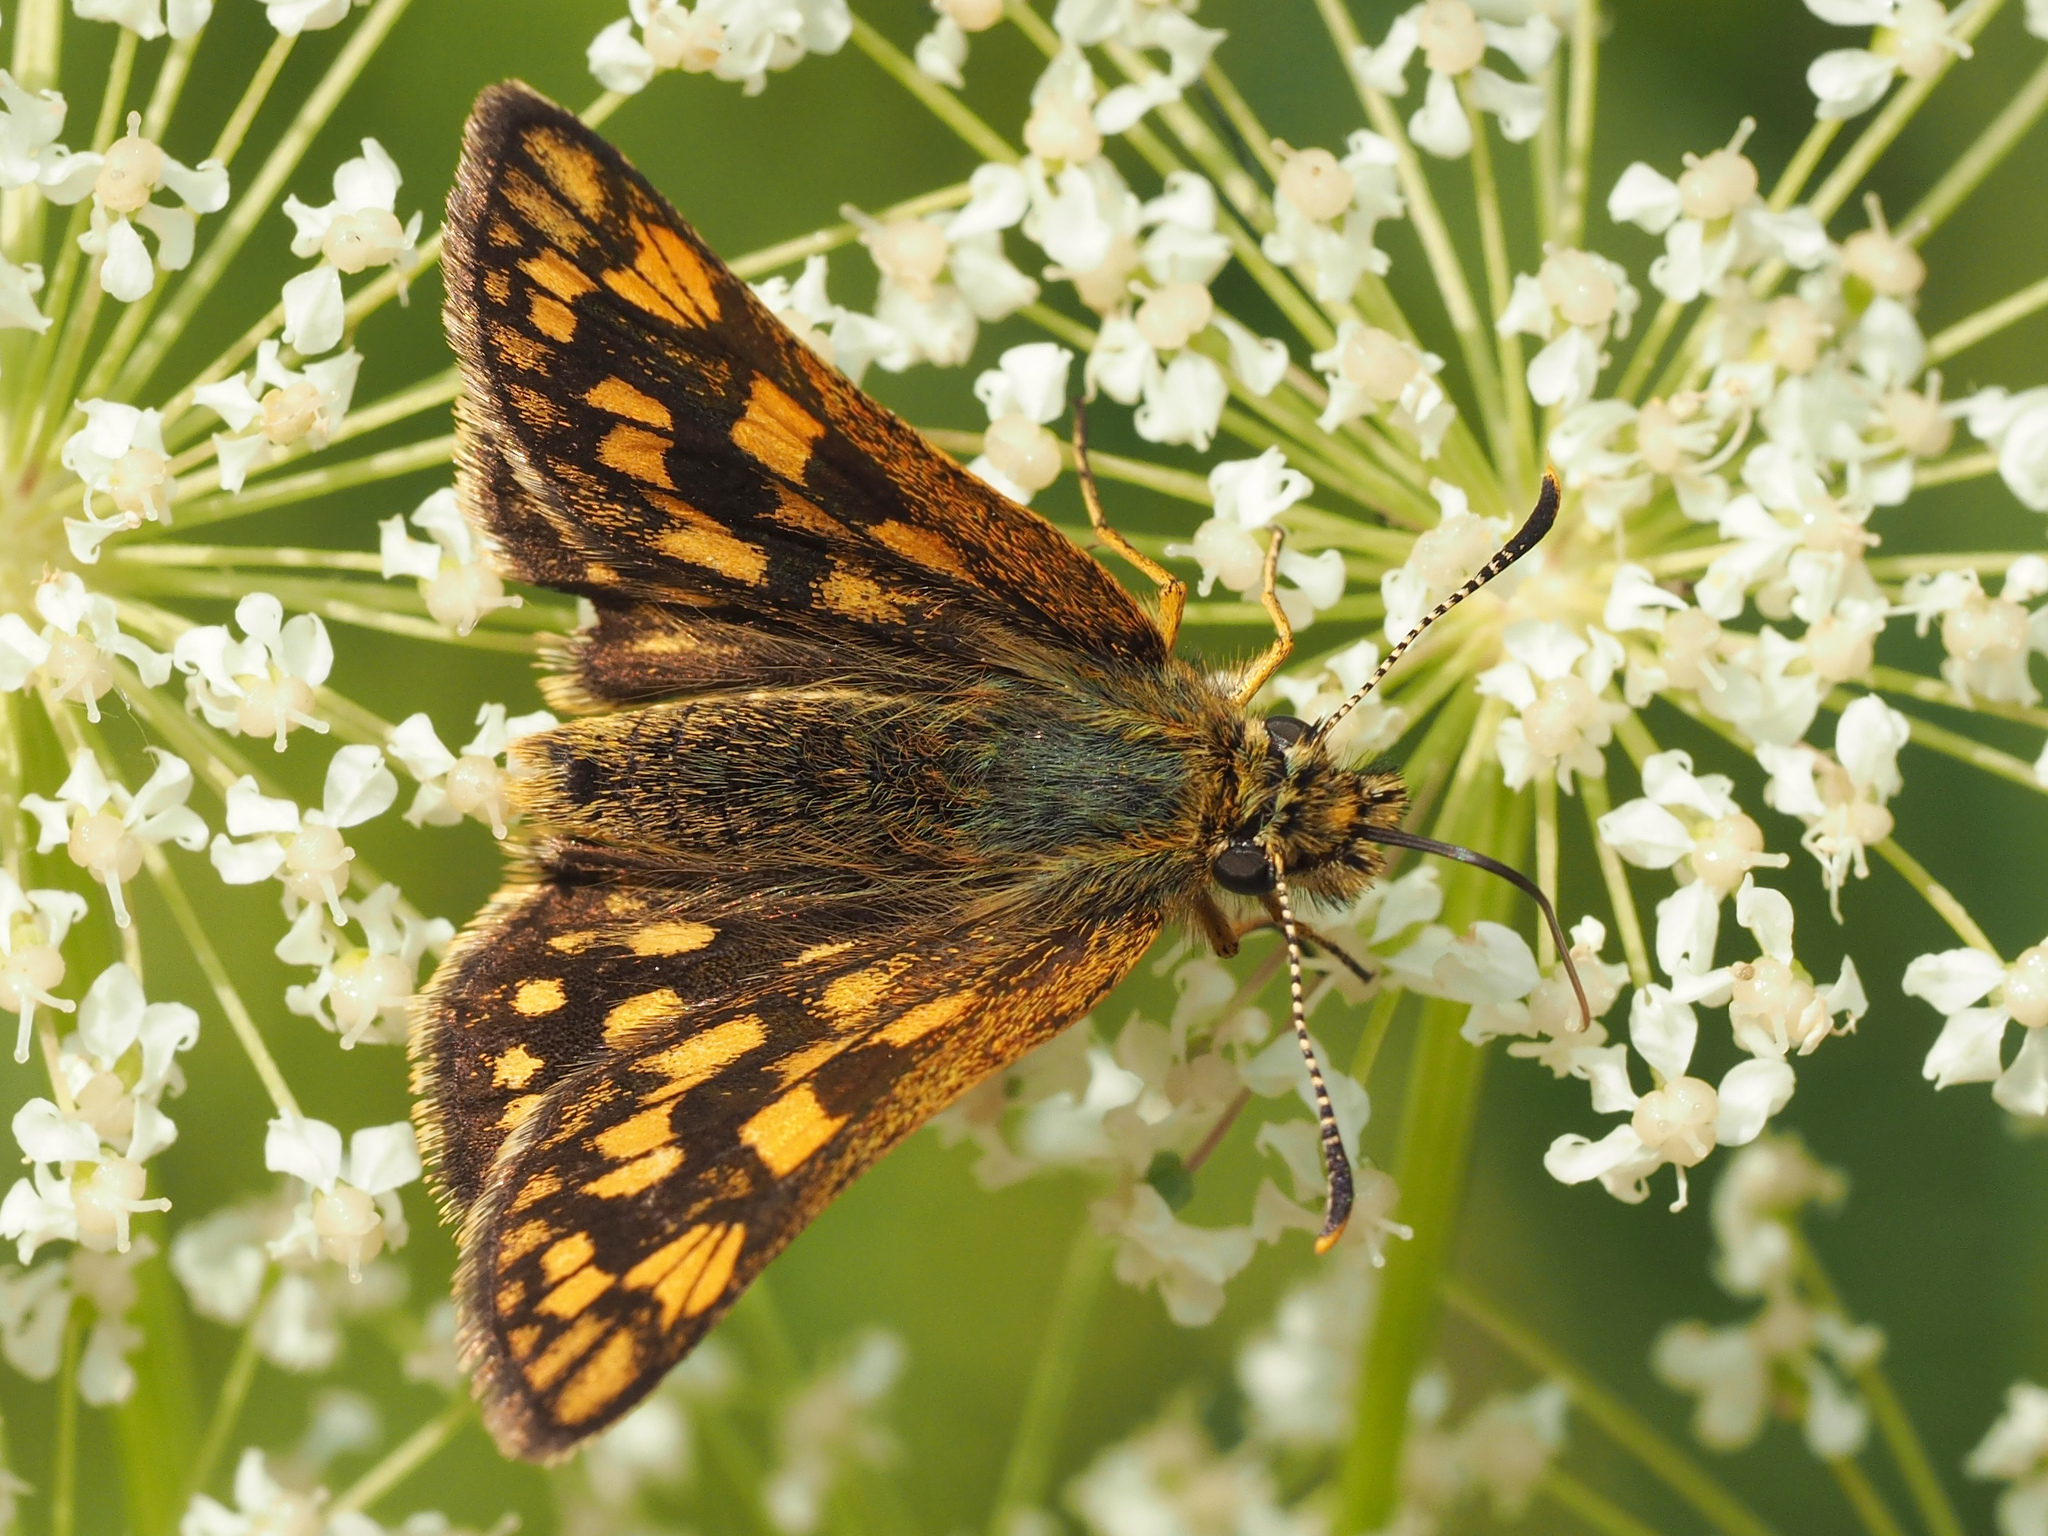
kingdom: Animalia
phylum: Arthropoda
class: Insecta
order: Lepidoptera
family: Hesperiidae
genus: Carterocephalus
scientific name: Carterocephalus palaemon
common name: Chequered skipper
